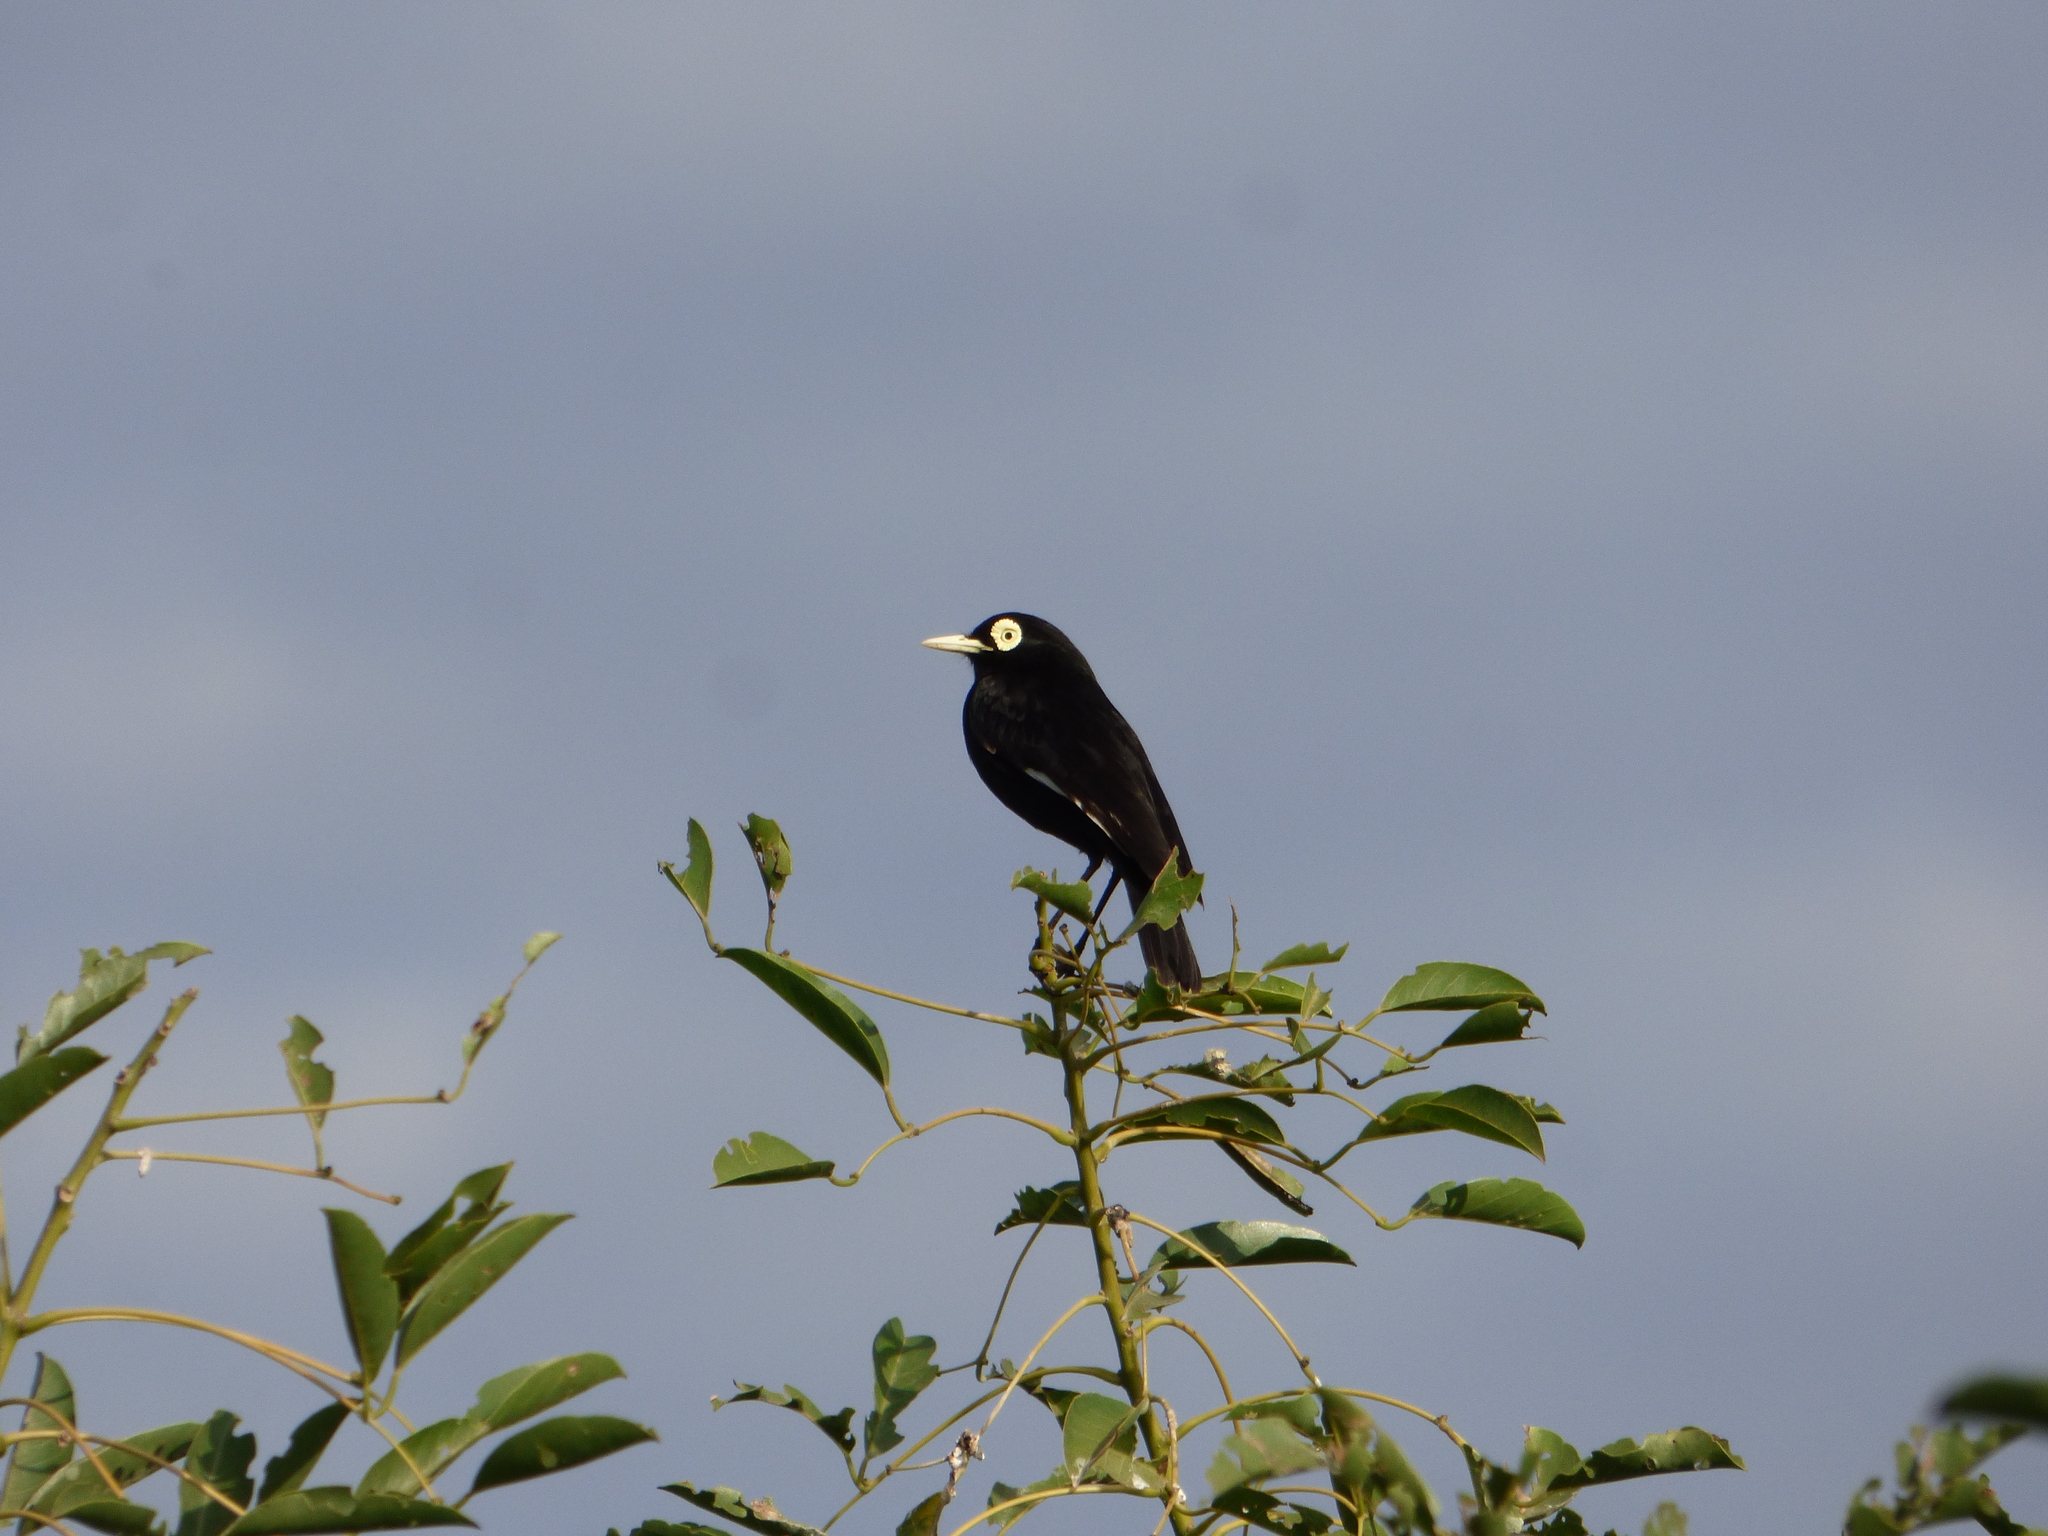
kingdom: Animalia
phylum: Chordata
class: Aves
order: Passeriformes
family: Tyrannidae
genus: Hymenops
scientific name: Hymenops perspicillatus
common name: Spectacled tyrant
